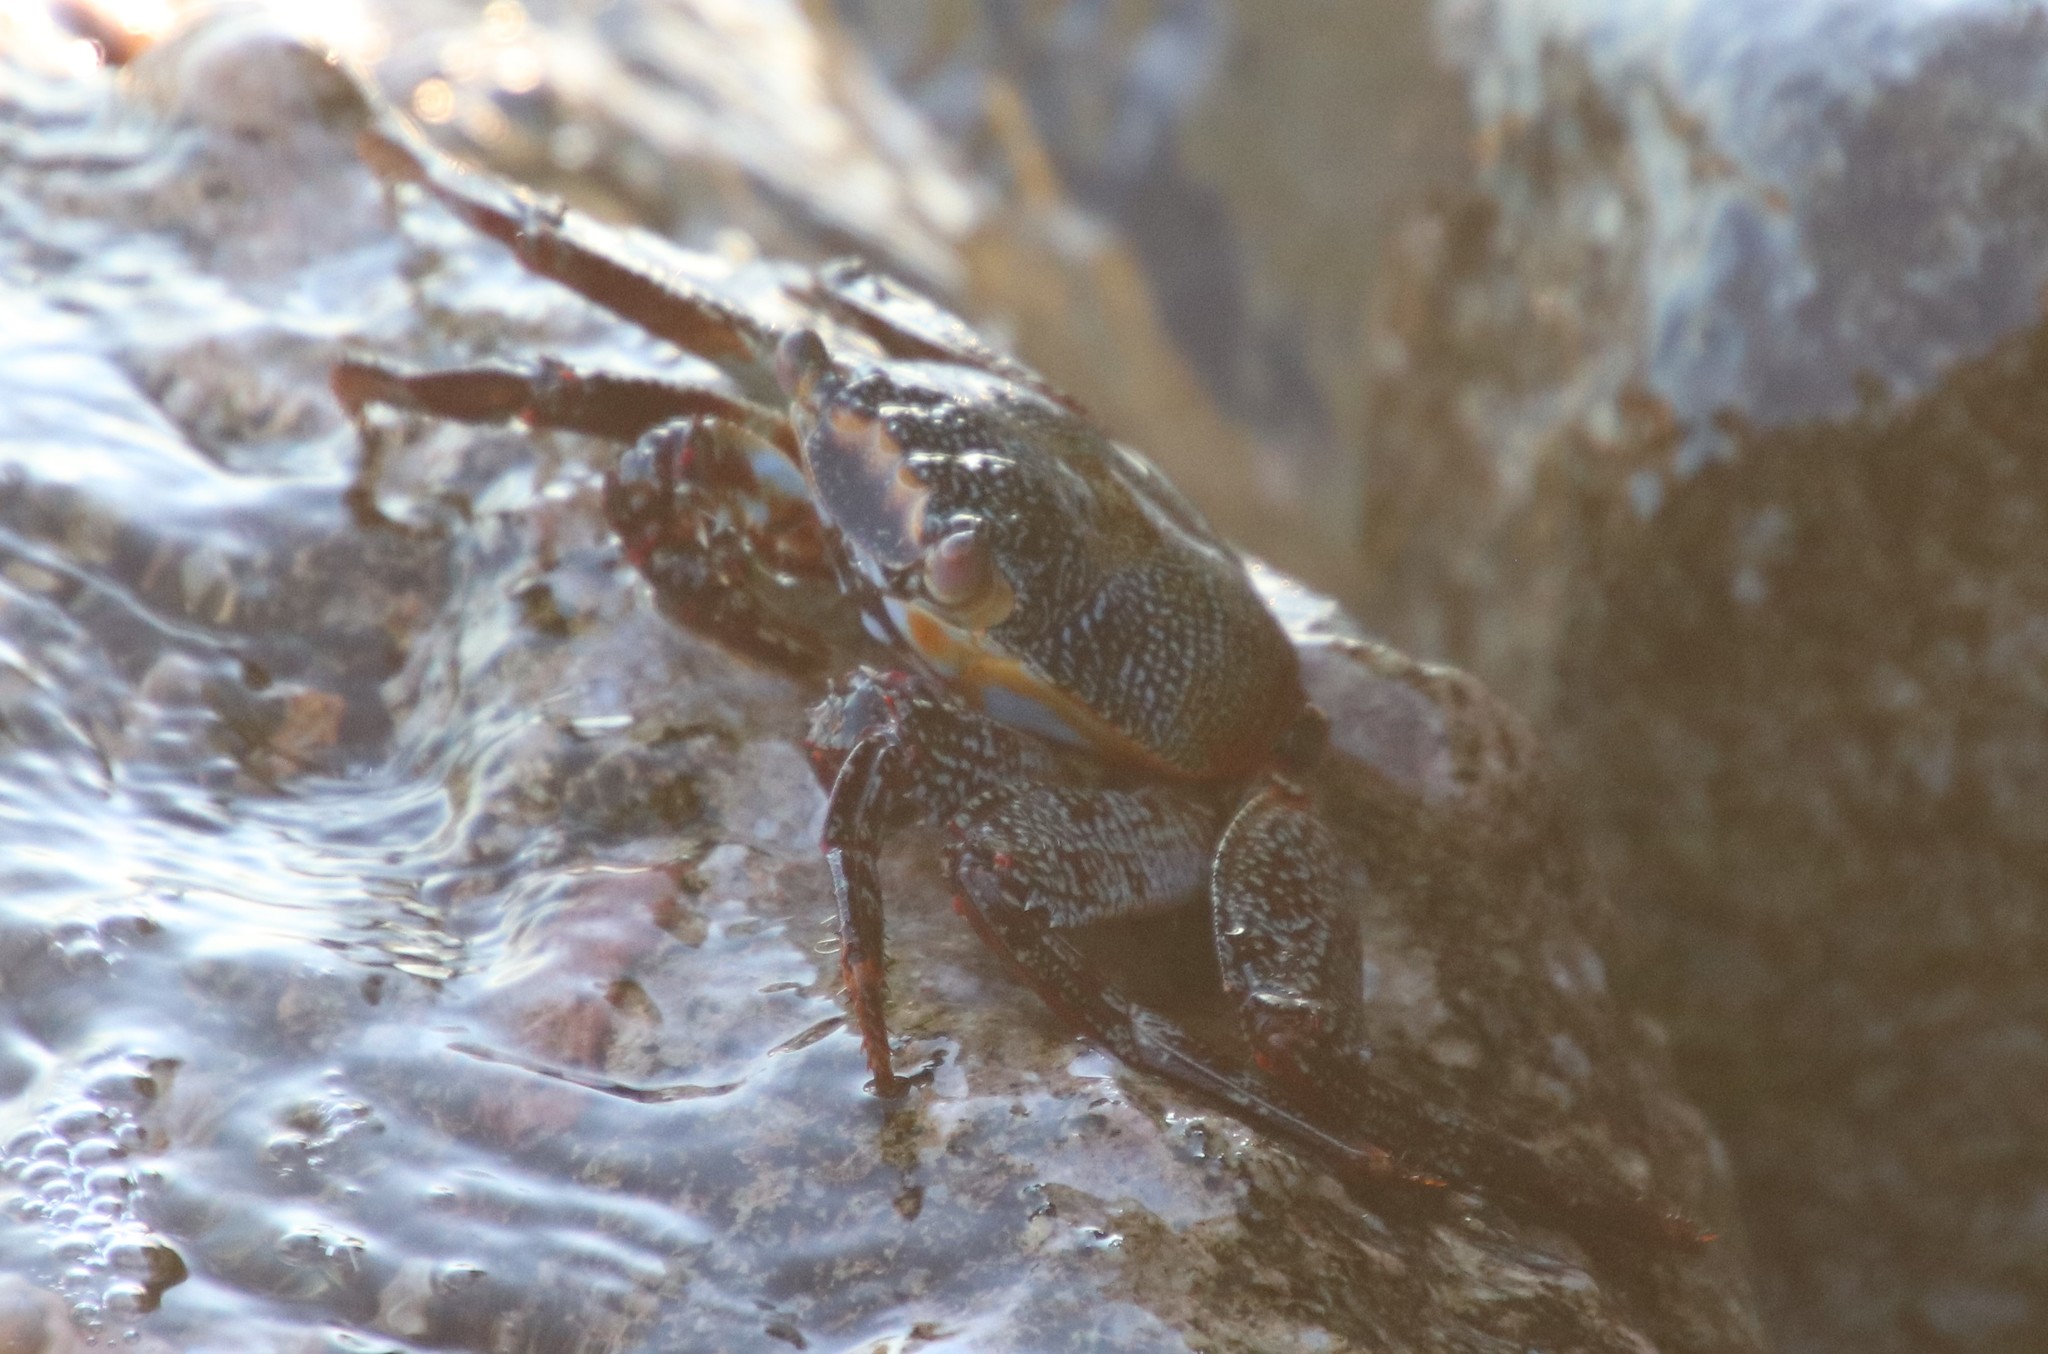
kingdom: Animalia
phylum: Arthropoda
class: Malacostraca
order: Decapoda
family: Grapsidae
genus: Grapsus
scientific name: Grapsus grapsus
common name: Sally lightfoot
